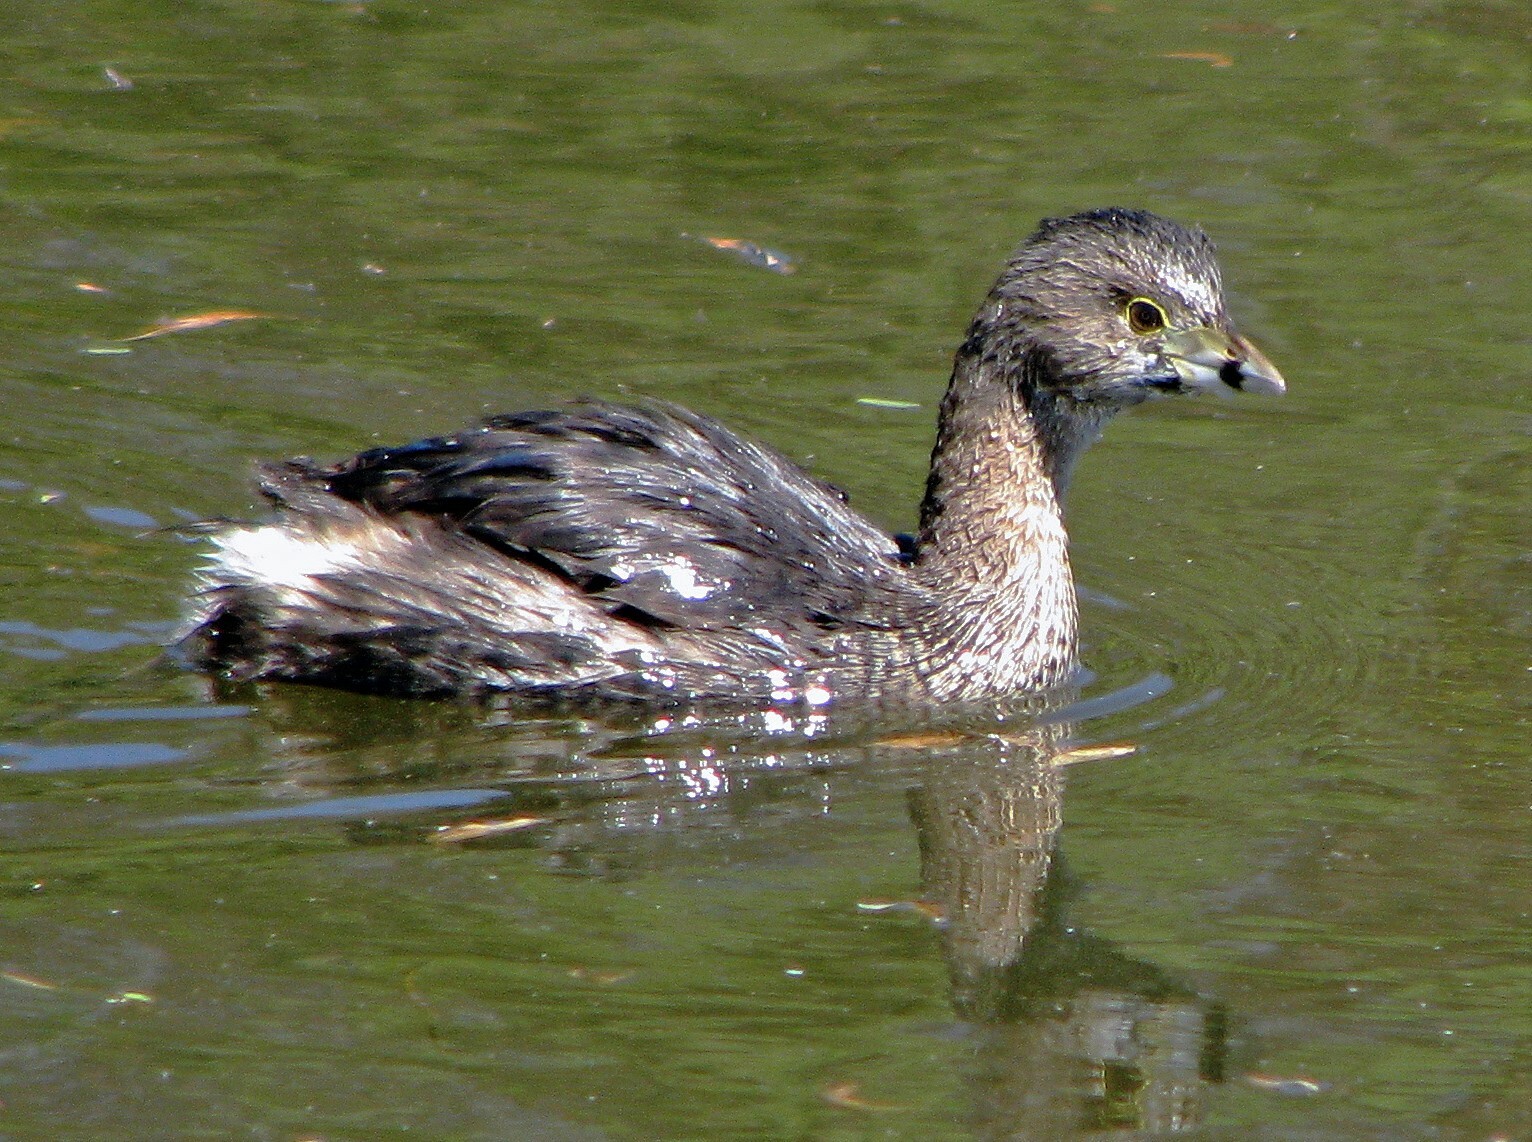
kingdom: Animalia
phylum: Chordata
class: Aves
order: Podicipediformes
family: Podicipedidae
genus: Podilymbus
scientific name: Podilymbus podiceps
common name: Pied-billed grebe
